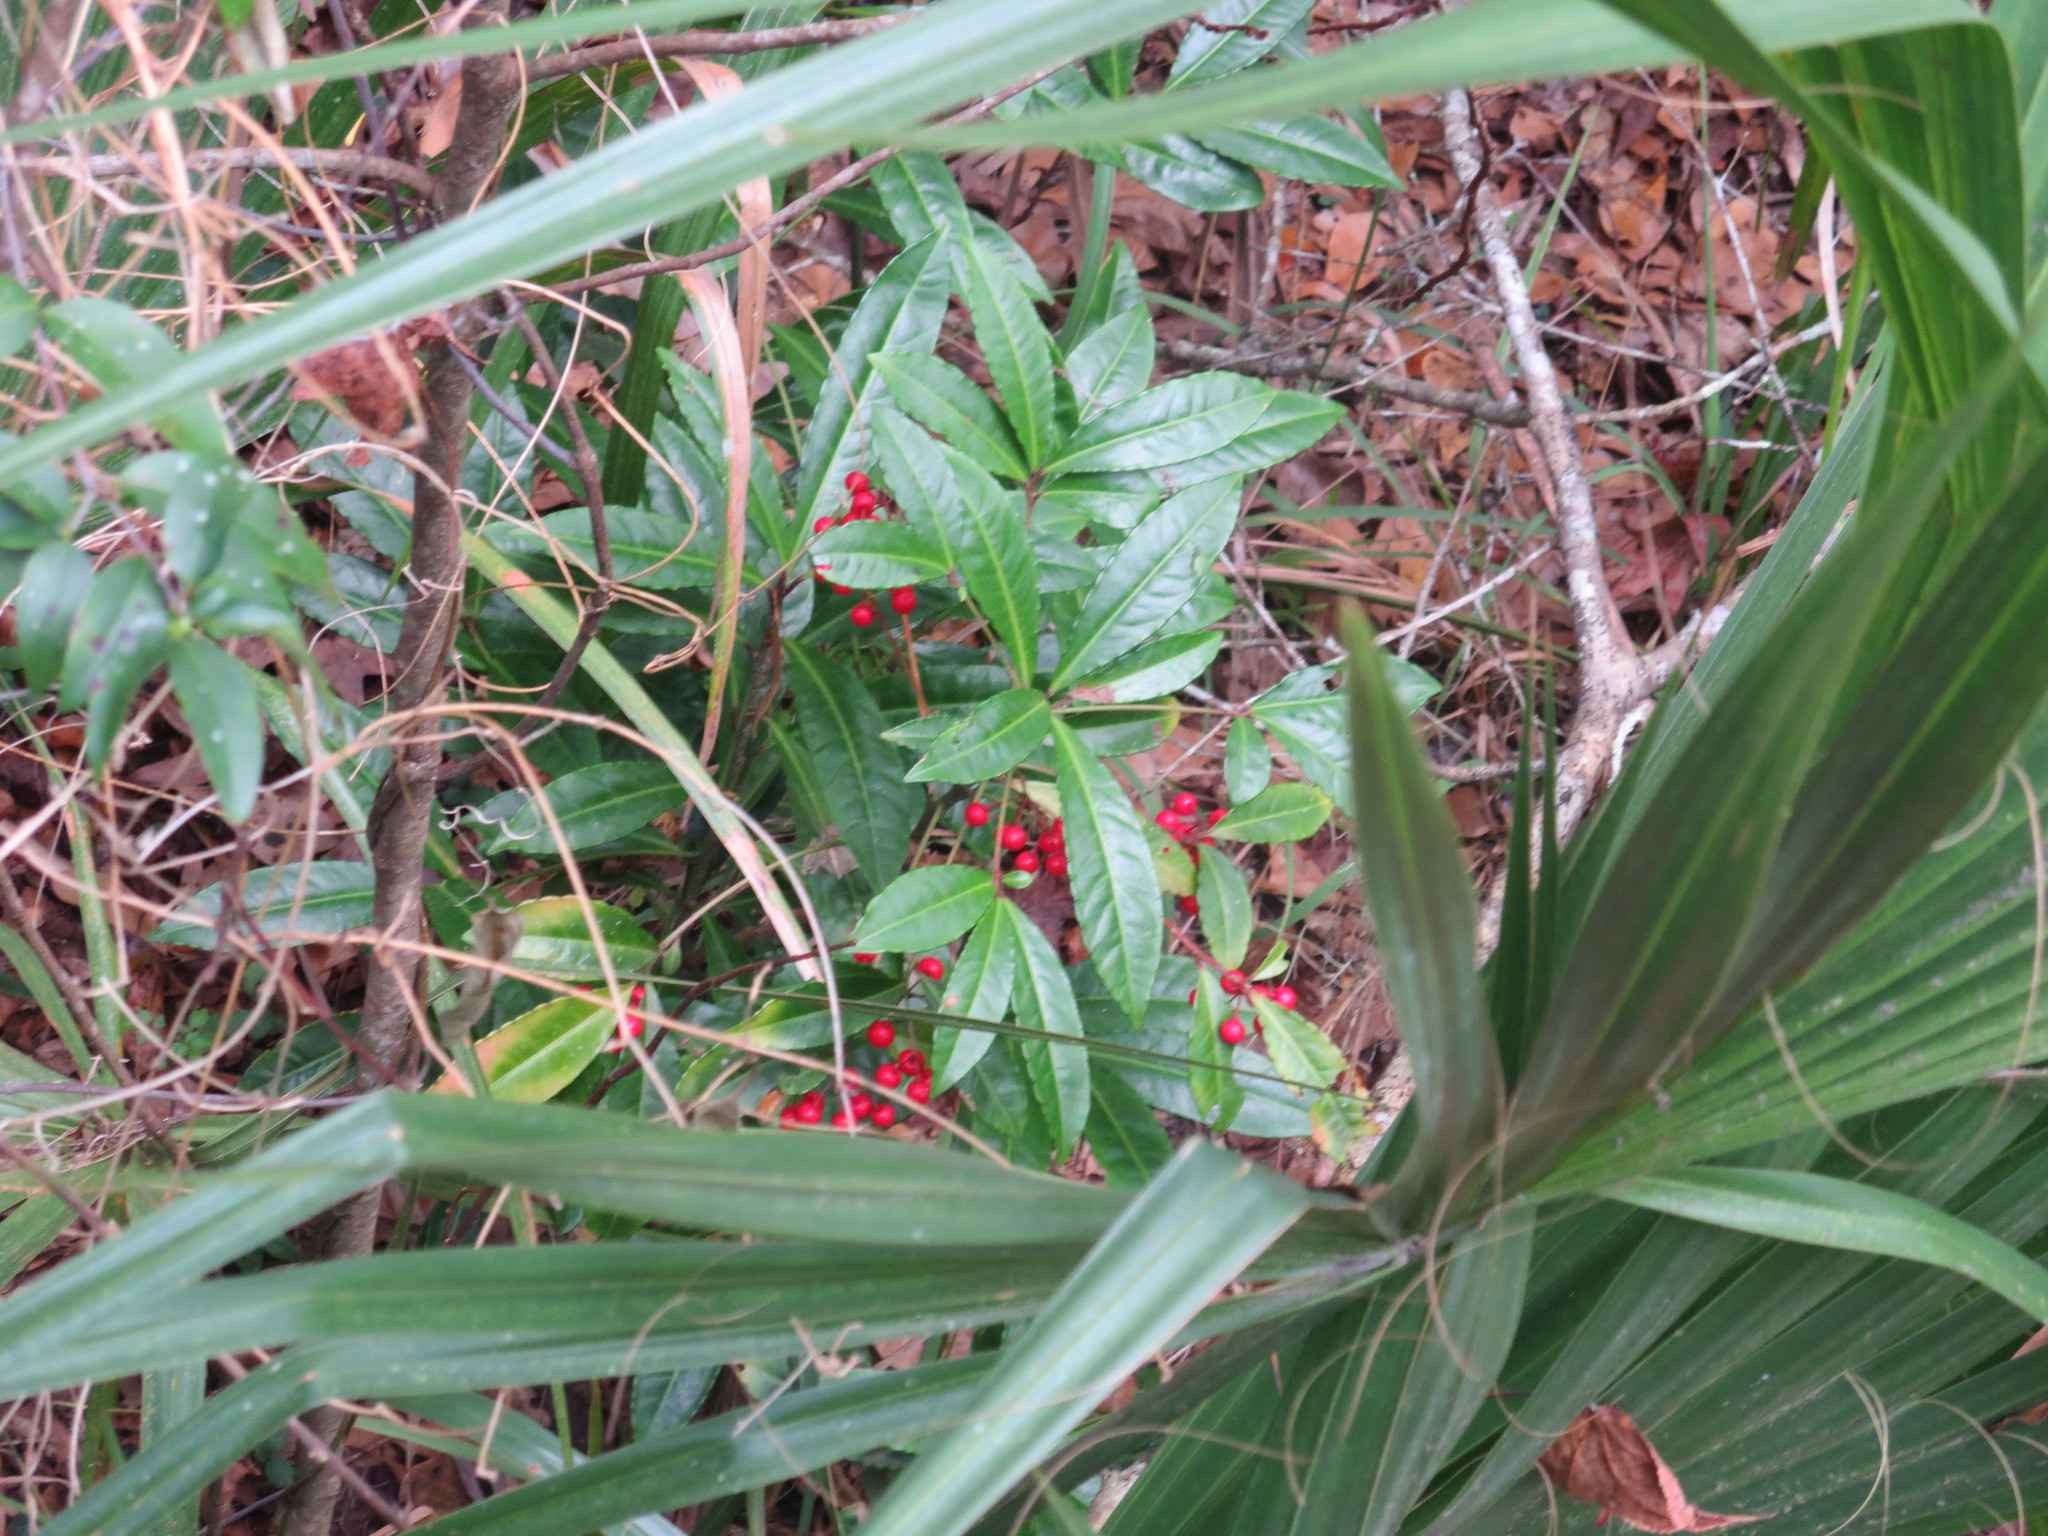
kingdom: Plantae
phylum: Tracheophyta
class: Magnoliopsida
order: Ericales
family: Primulaceae
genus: Ardisia
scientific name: Ardisia crenata
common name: Hen's eyes
